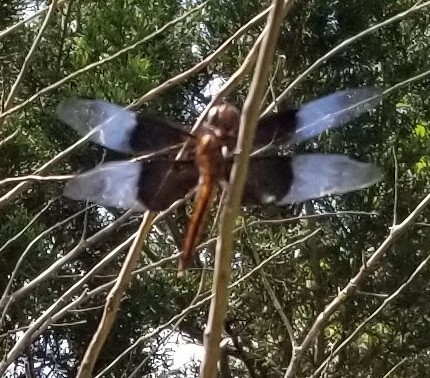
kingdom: Animalia
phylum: Arthropoda
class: Insecta
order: Odonata
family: Libellulidae
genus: Libellula
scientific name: Libellula luctuosa
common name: Widow skimmer
